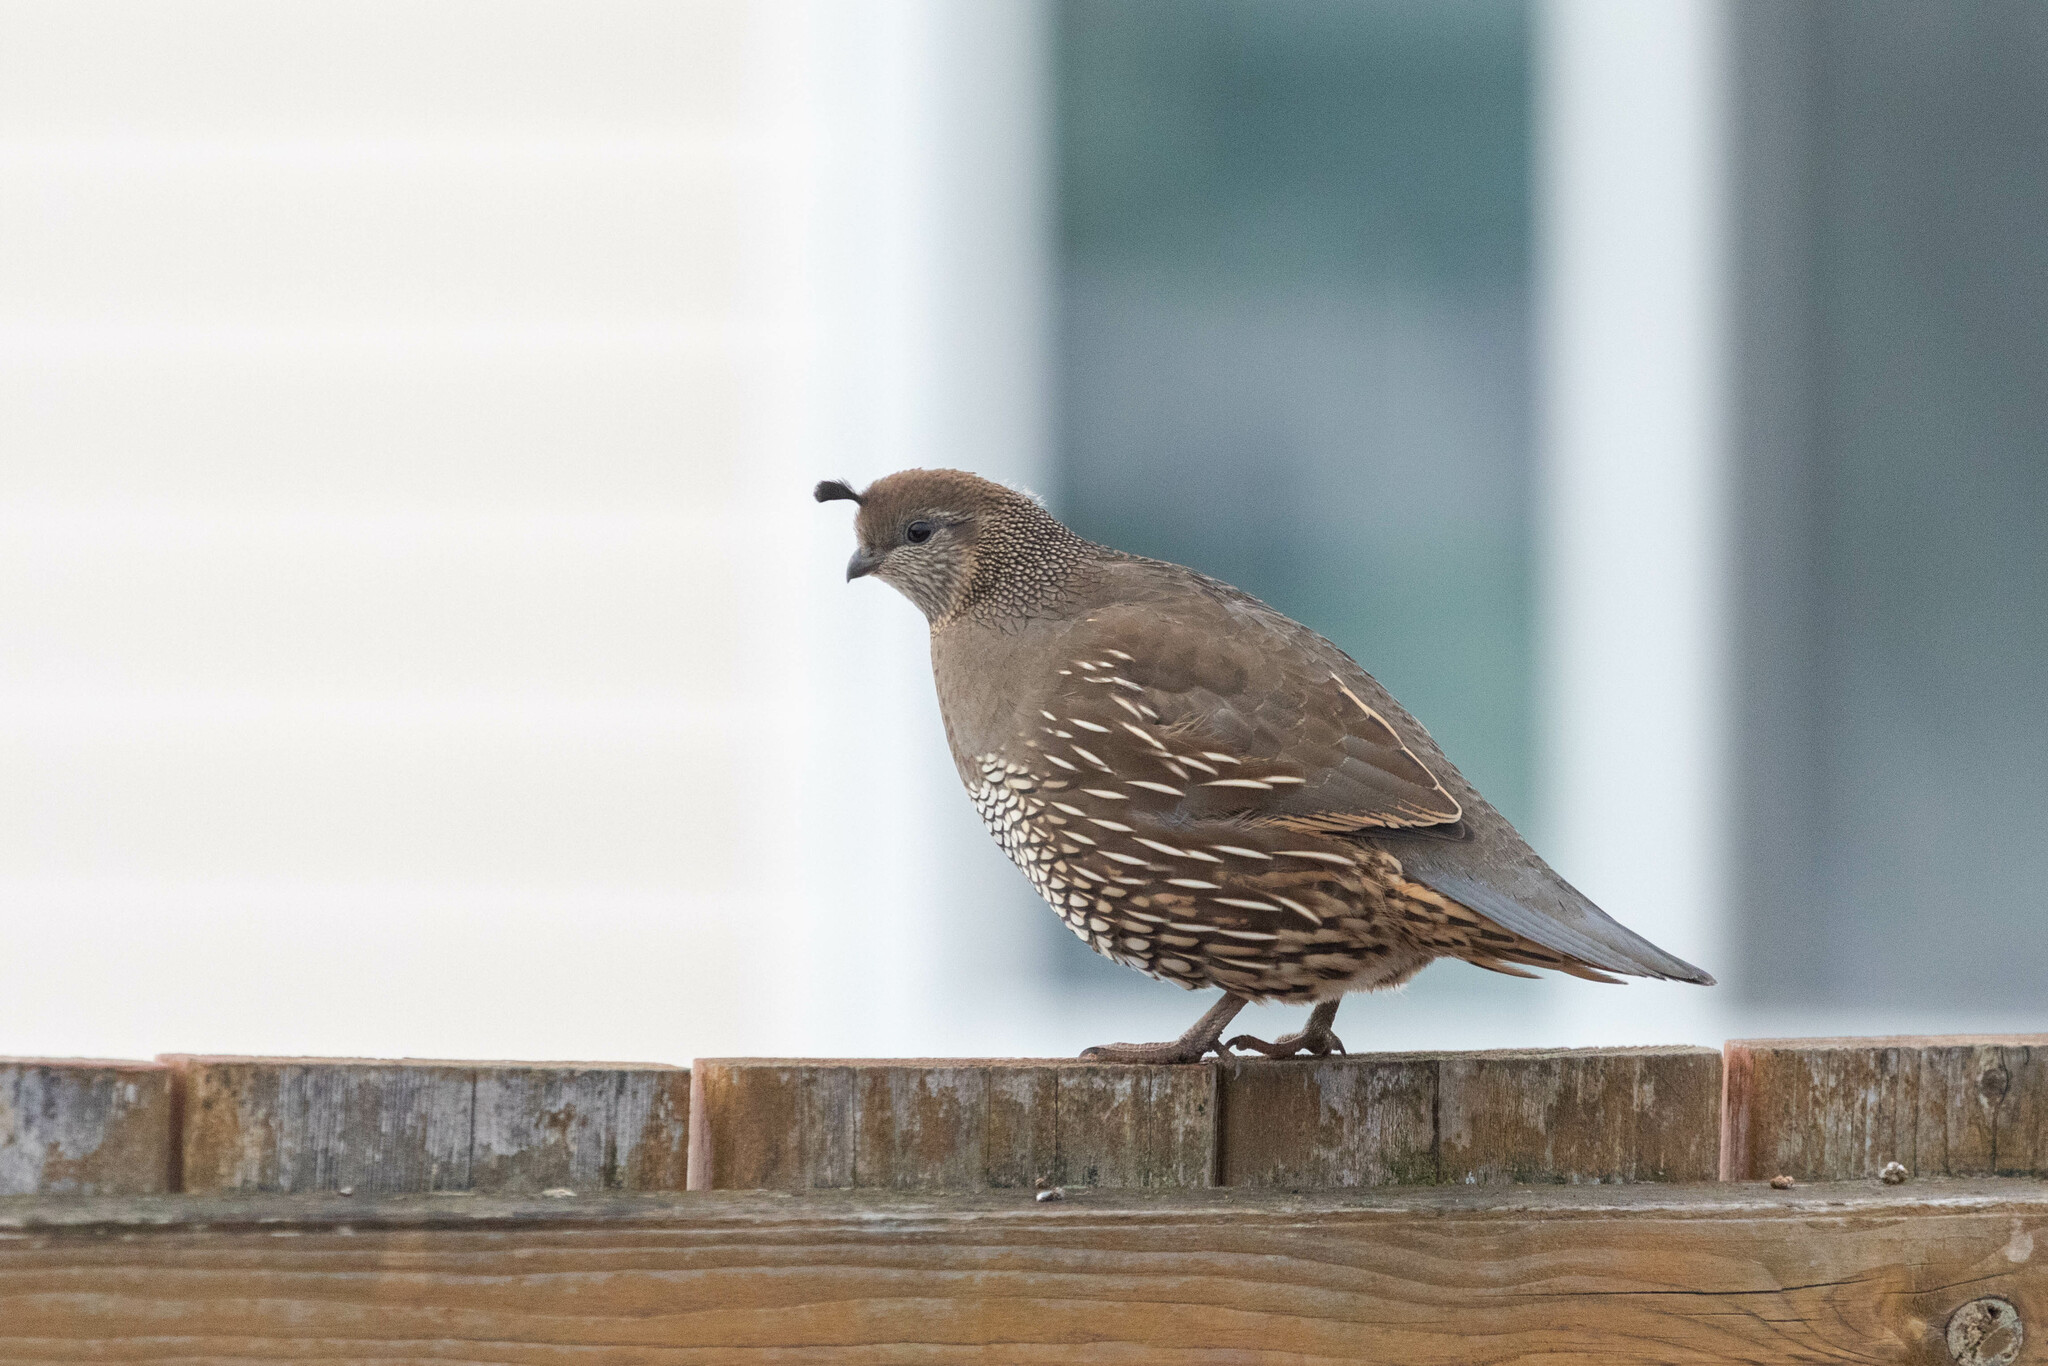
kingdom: Animalia
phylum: Chordata
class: Aves
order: Galliformes
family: Odontophoridae
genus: Callipepla
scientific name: Callipepla californica
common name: California quail
